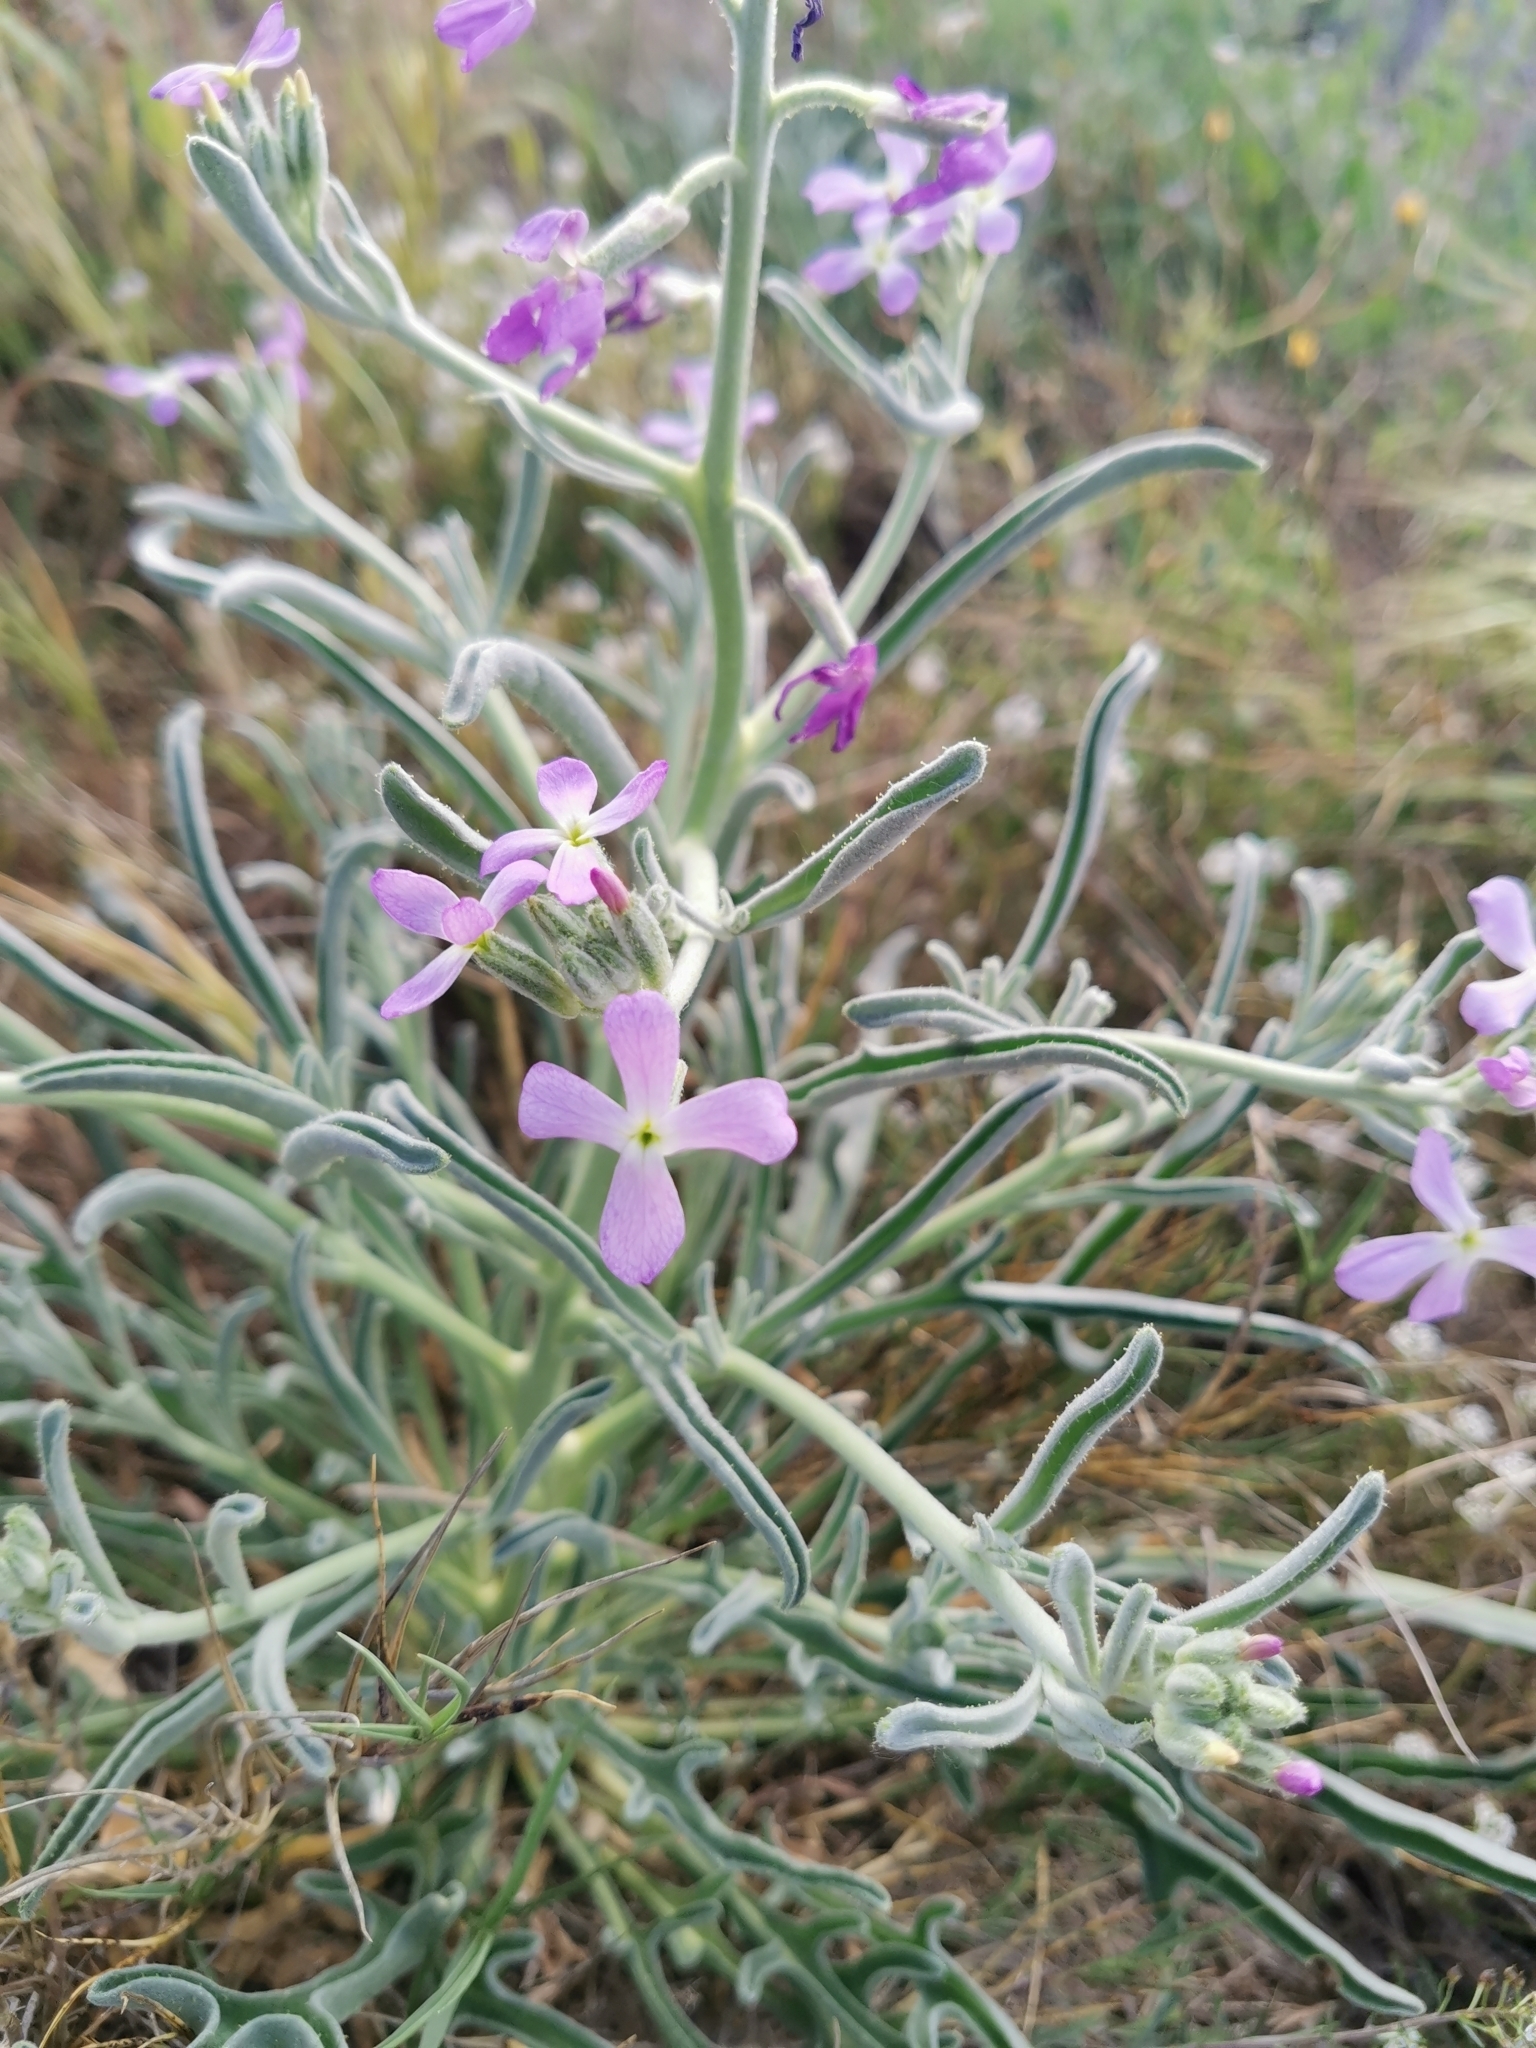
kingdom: Plantae
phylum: Tracheophyta
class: Magnoliopsida
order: Brassicales
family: Brassicaceae
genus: Matthiola
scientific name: Matthiola sinuata
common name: Sea stock
